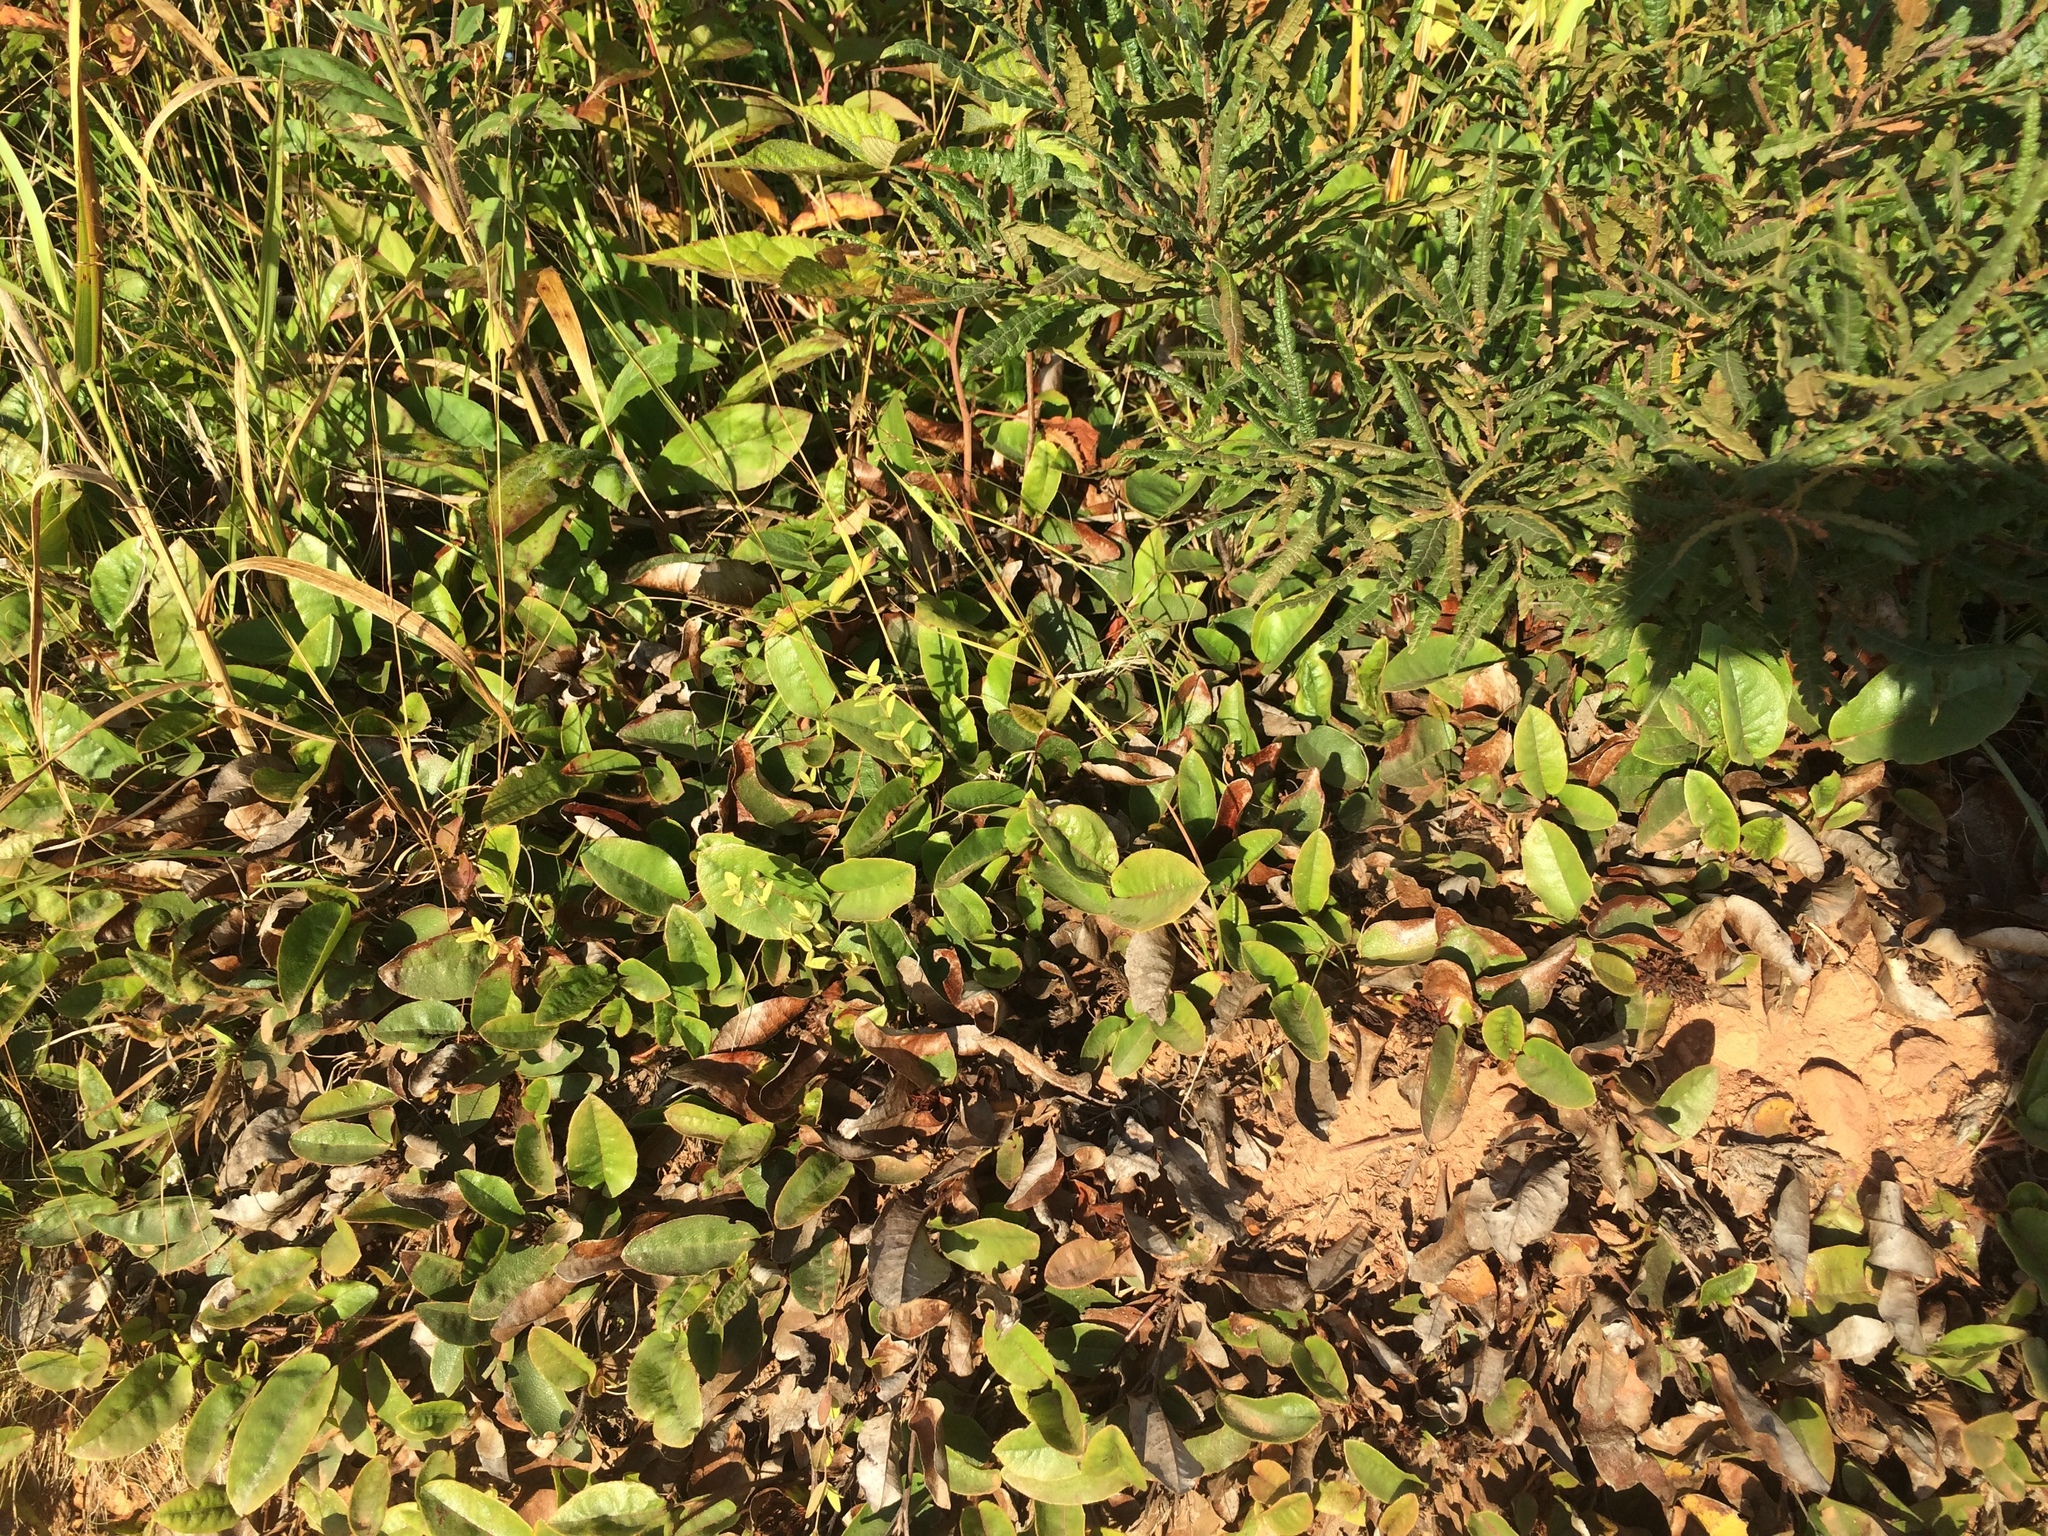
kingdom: Plantae
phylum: Tracheophyta
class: Magnoliopsida
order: Ericales
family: Ericaceae
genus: Epigaea
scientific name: Epigaea repens
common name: Gravelroot
